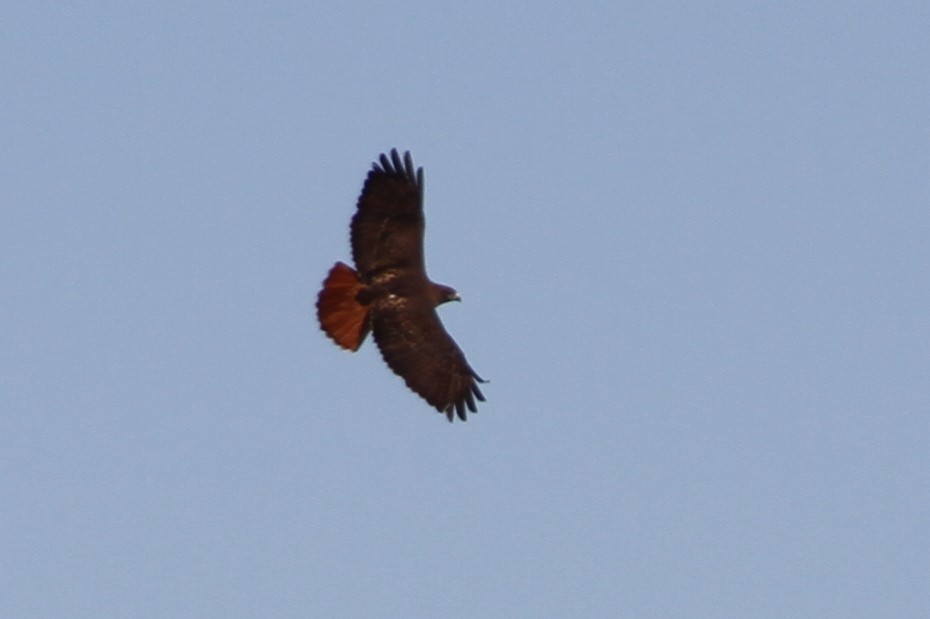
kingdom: Animalia
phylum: Chordata
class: Aves
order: Accipitriformes
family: Accipitridae
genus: Buteo
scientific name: Buteo jamaicensis
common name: Red-tailed hawk
